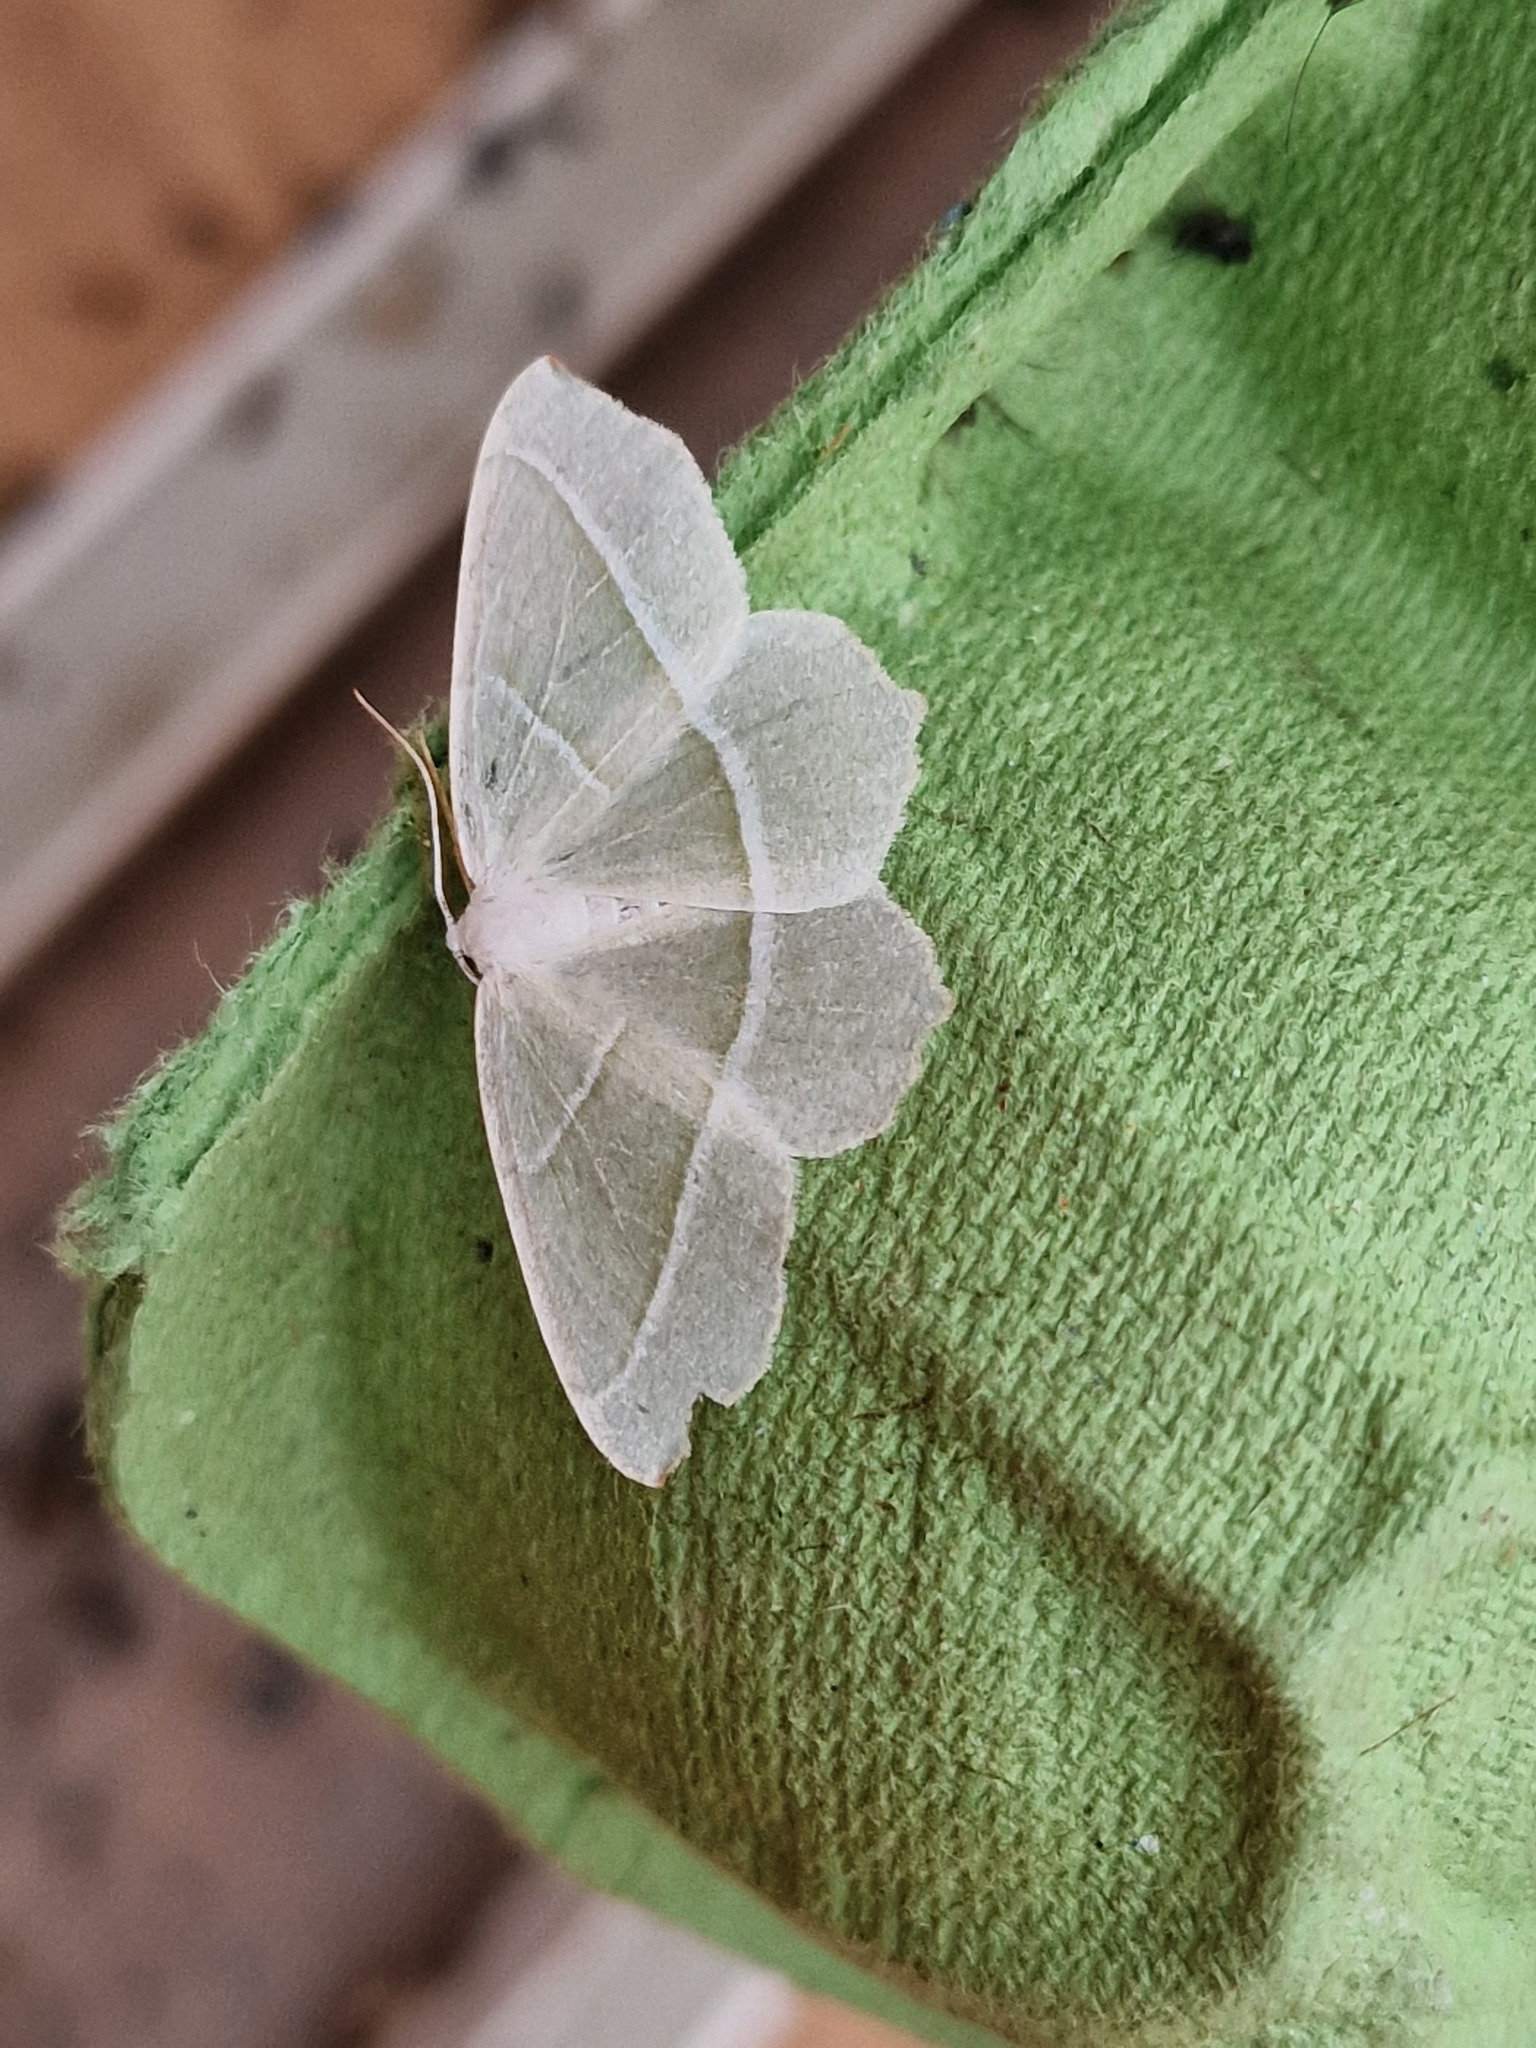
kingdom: Animalia
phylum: Arthropoda
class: Insecta
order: Lepidoptera
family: Geometridae
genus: Campaea
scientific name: Campaea margaritaria
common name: Light emerald
